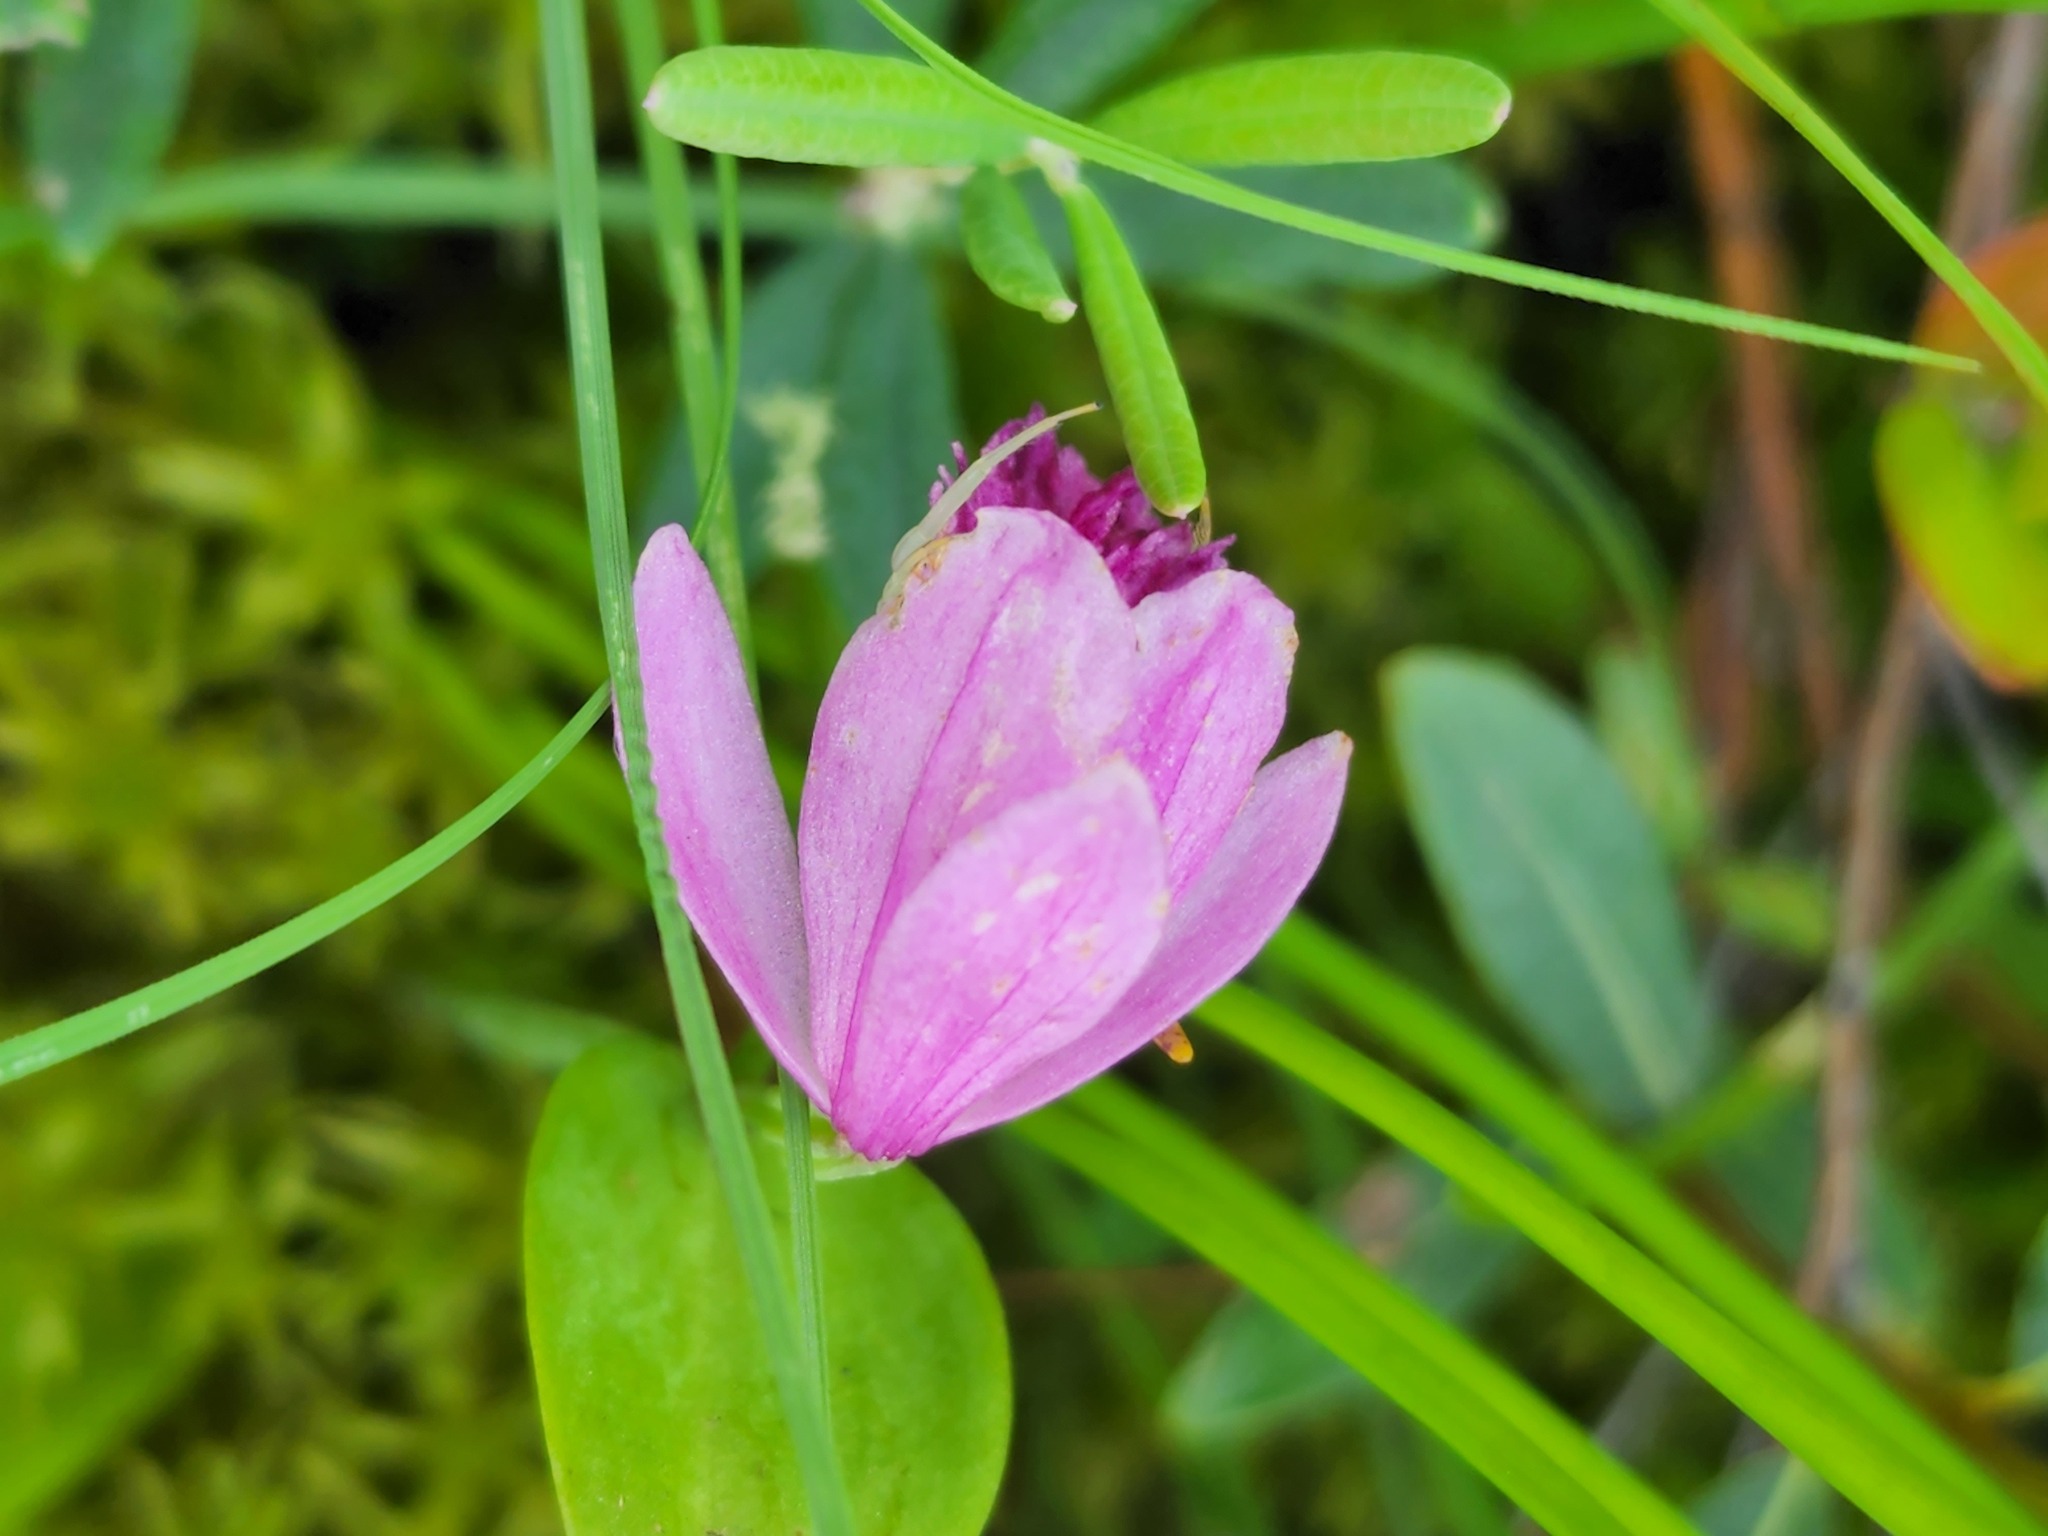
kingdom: Plantae
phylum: Tracheophyta
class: Liliopsida
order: Asparagales
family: Orchidaceae
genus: Pogonia
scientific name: Pogonia ophioglossoides
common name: Rose pogonia
